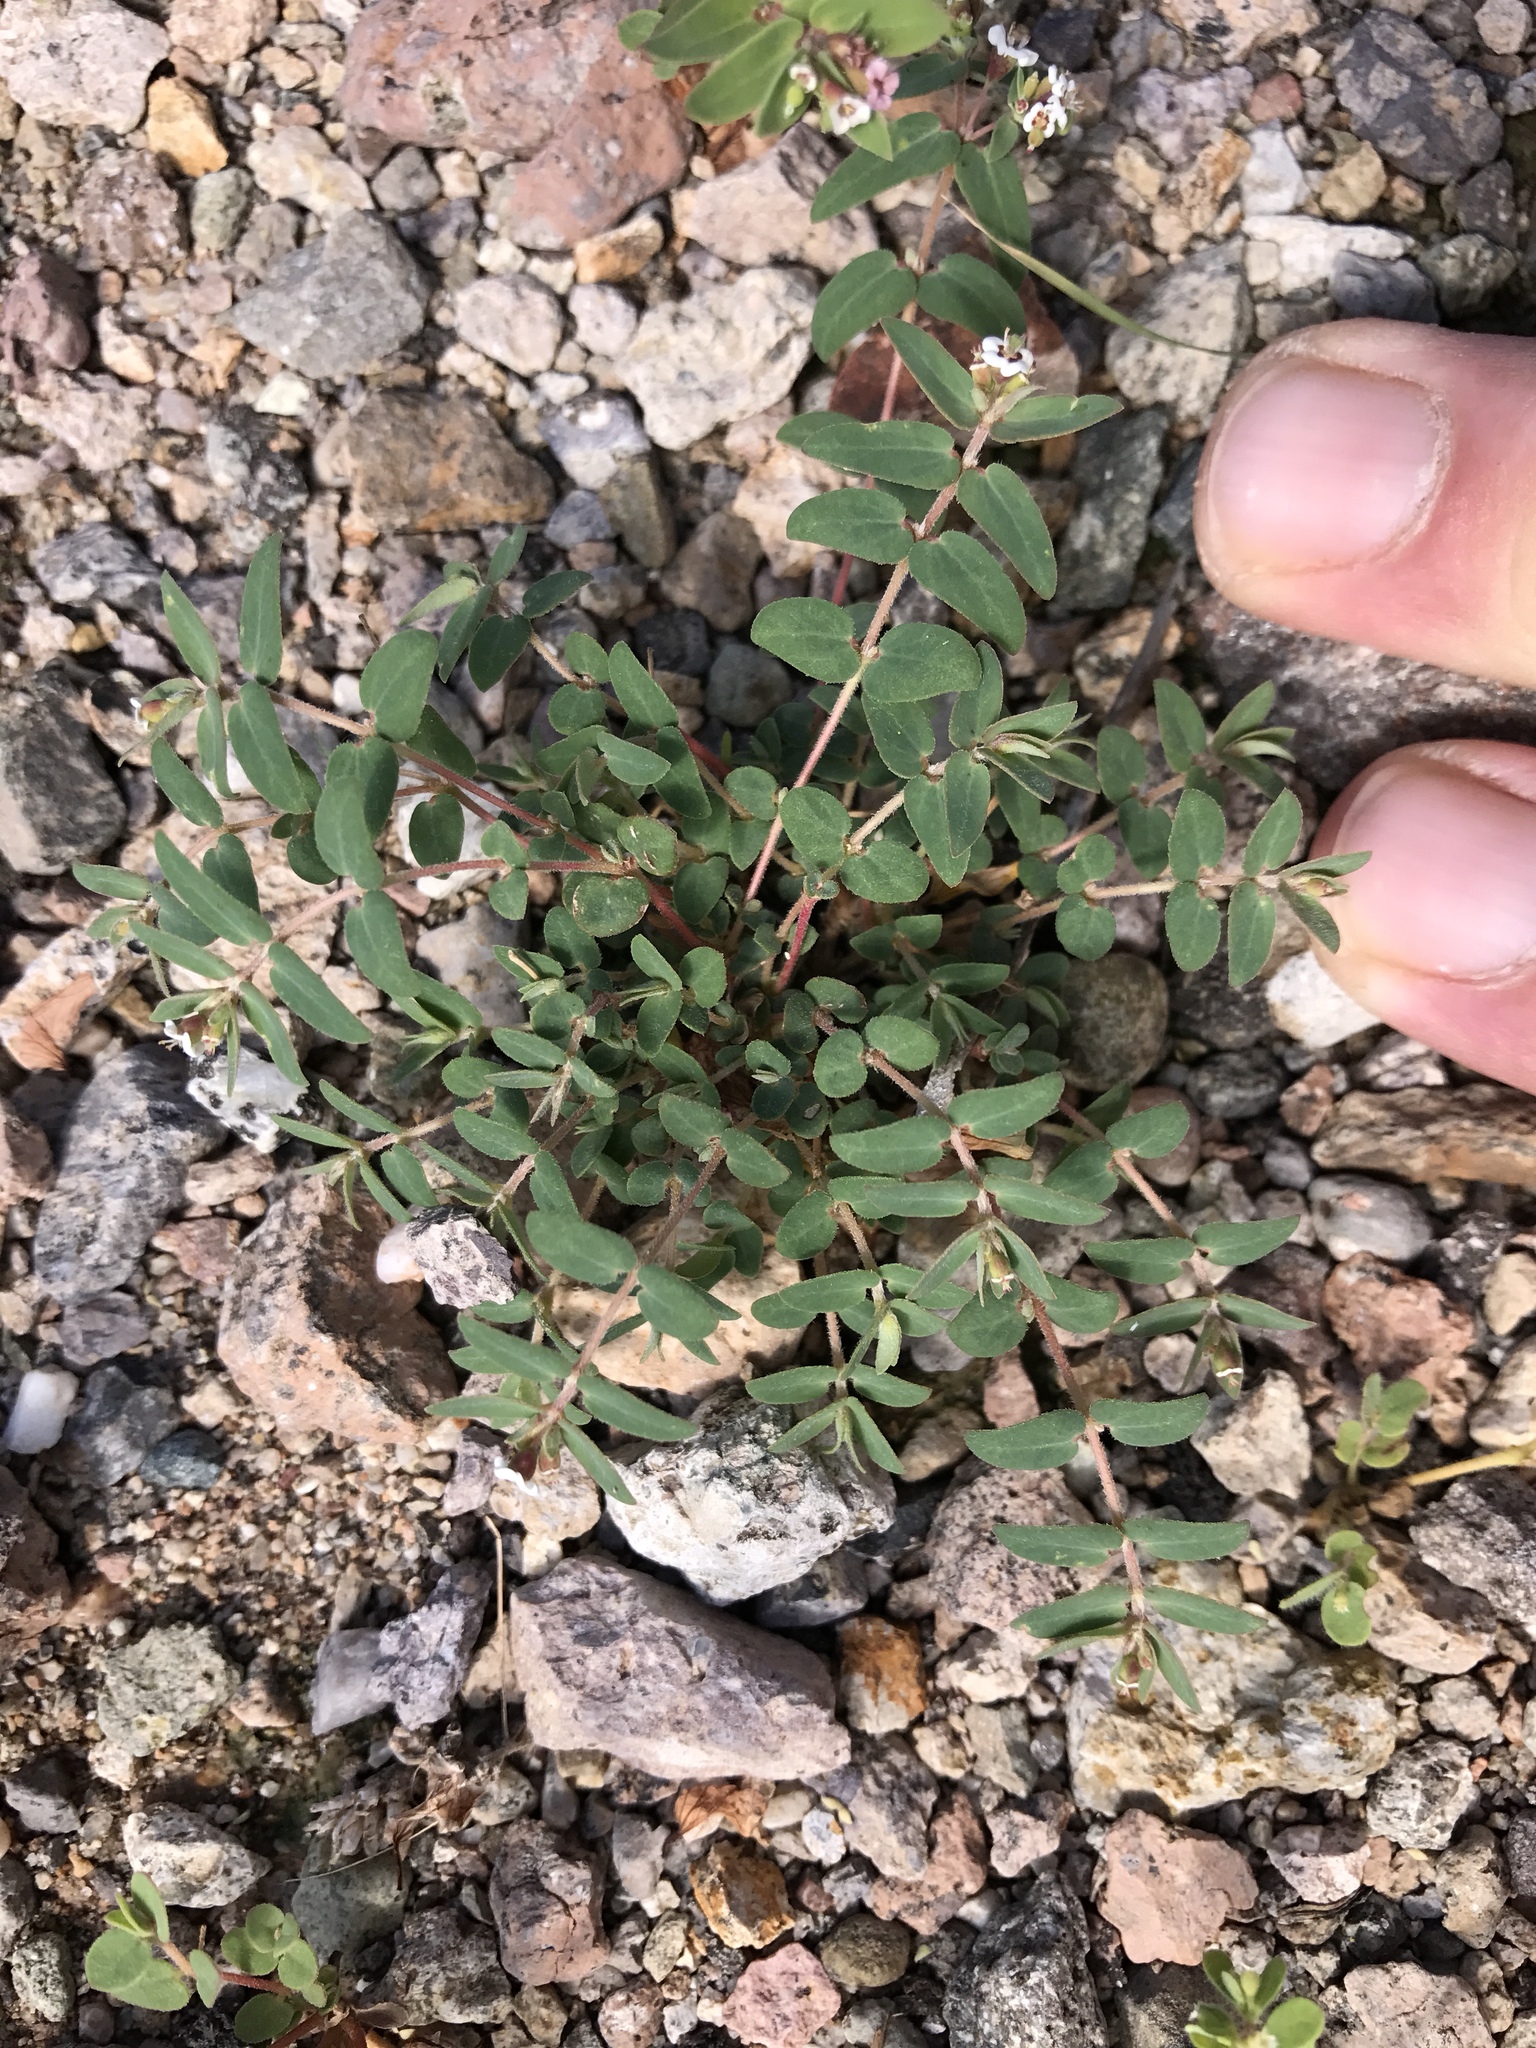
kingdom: Plantae
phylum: Tracheophyta
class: Magnoliopsida
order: Malpighiales
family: Euphorbiaceae
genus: Euphorbia
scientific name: Euphorbia capitellata
